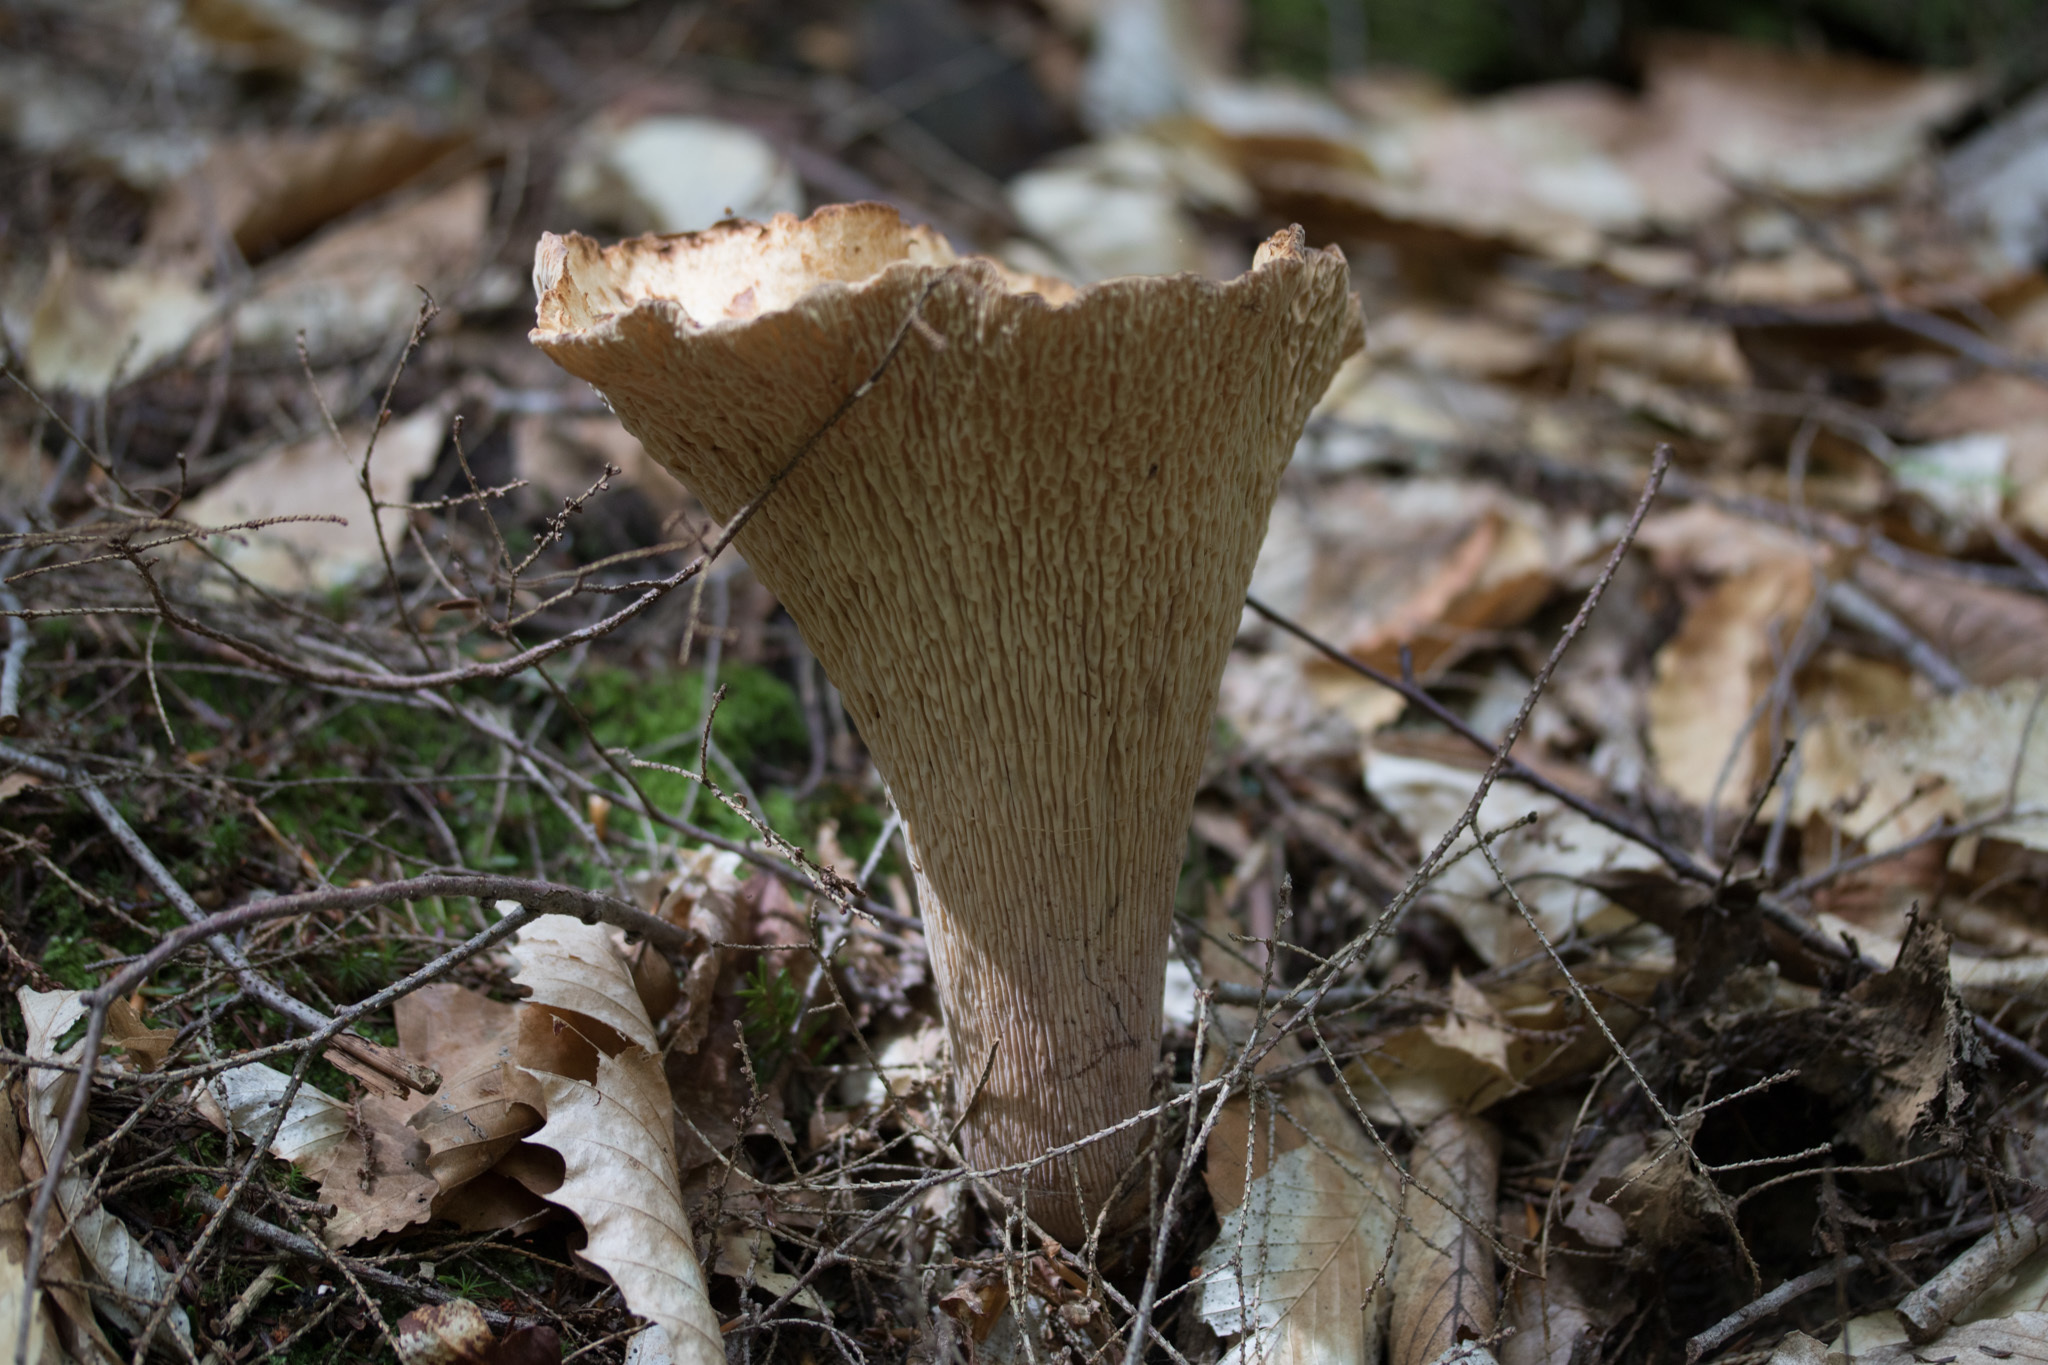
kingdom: Fungi
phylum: Basidiomycota
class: Agaricomycetes
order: Gomphales
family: Gomphaceae
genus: Turbinellus
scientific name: Turbinellus floccosus
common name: Scaly chanterelle
